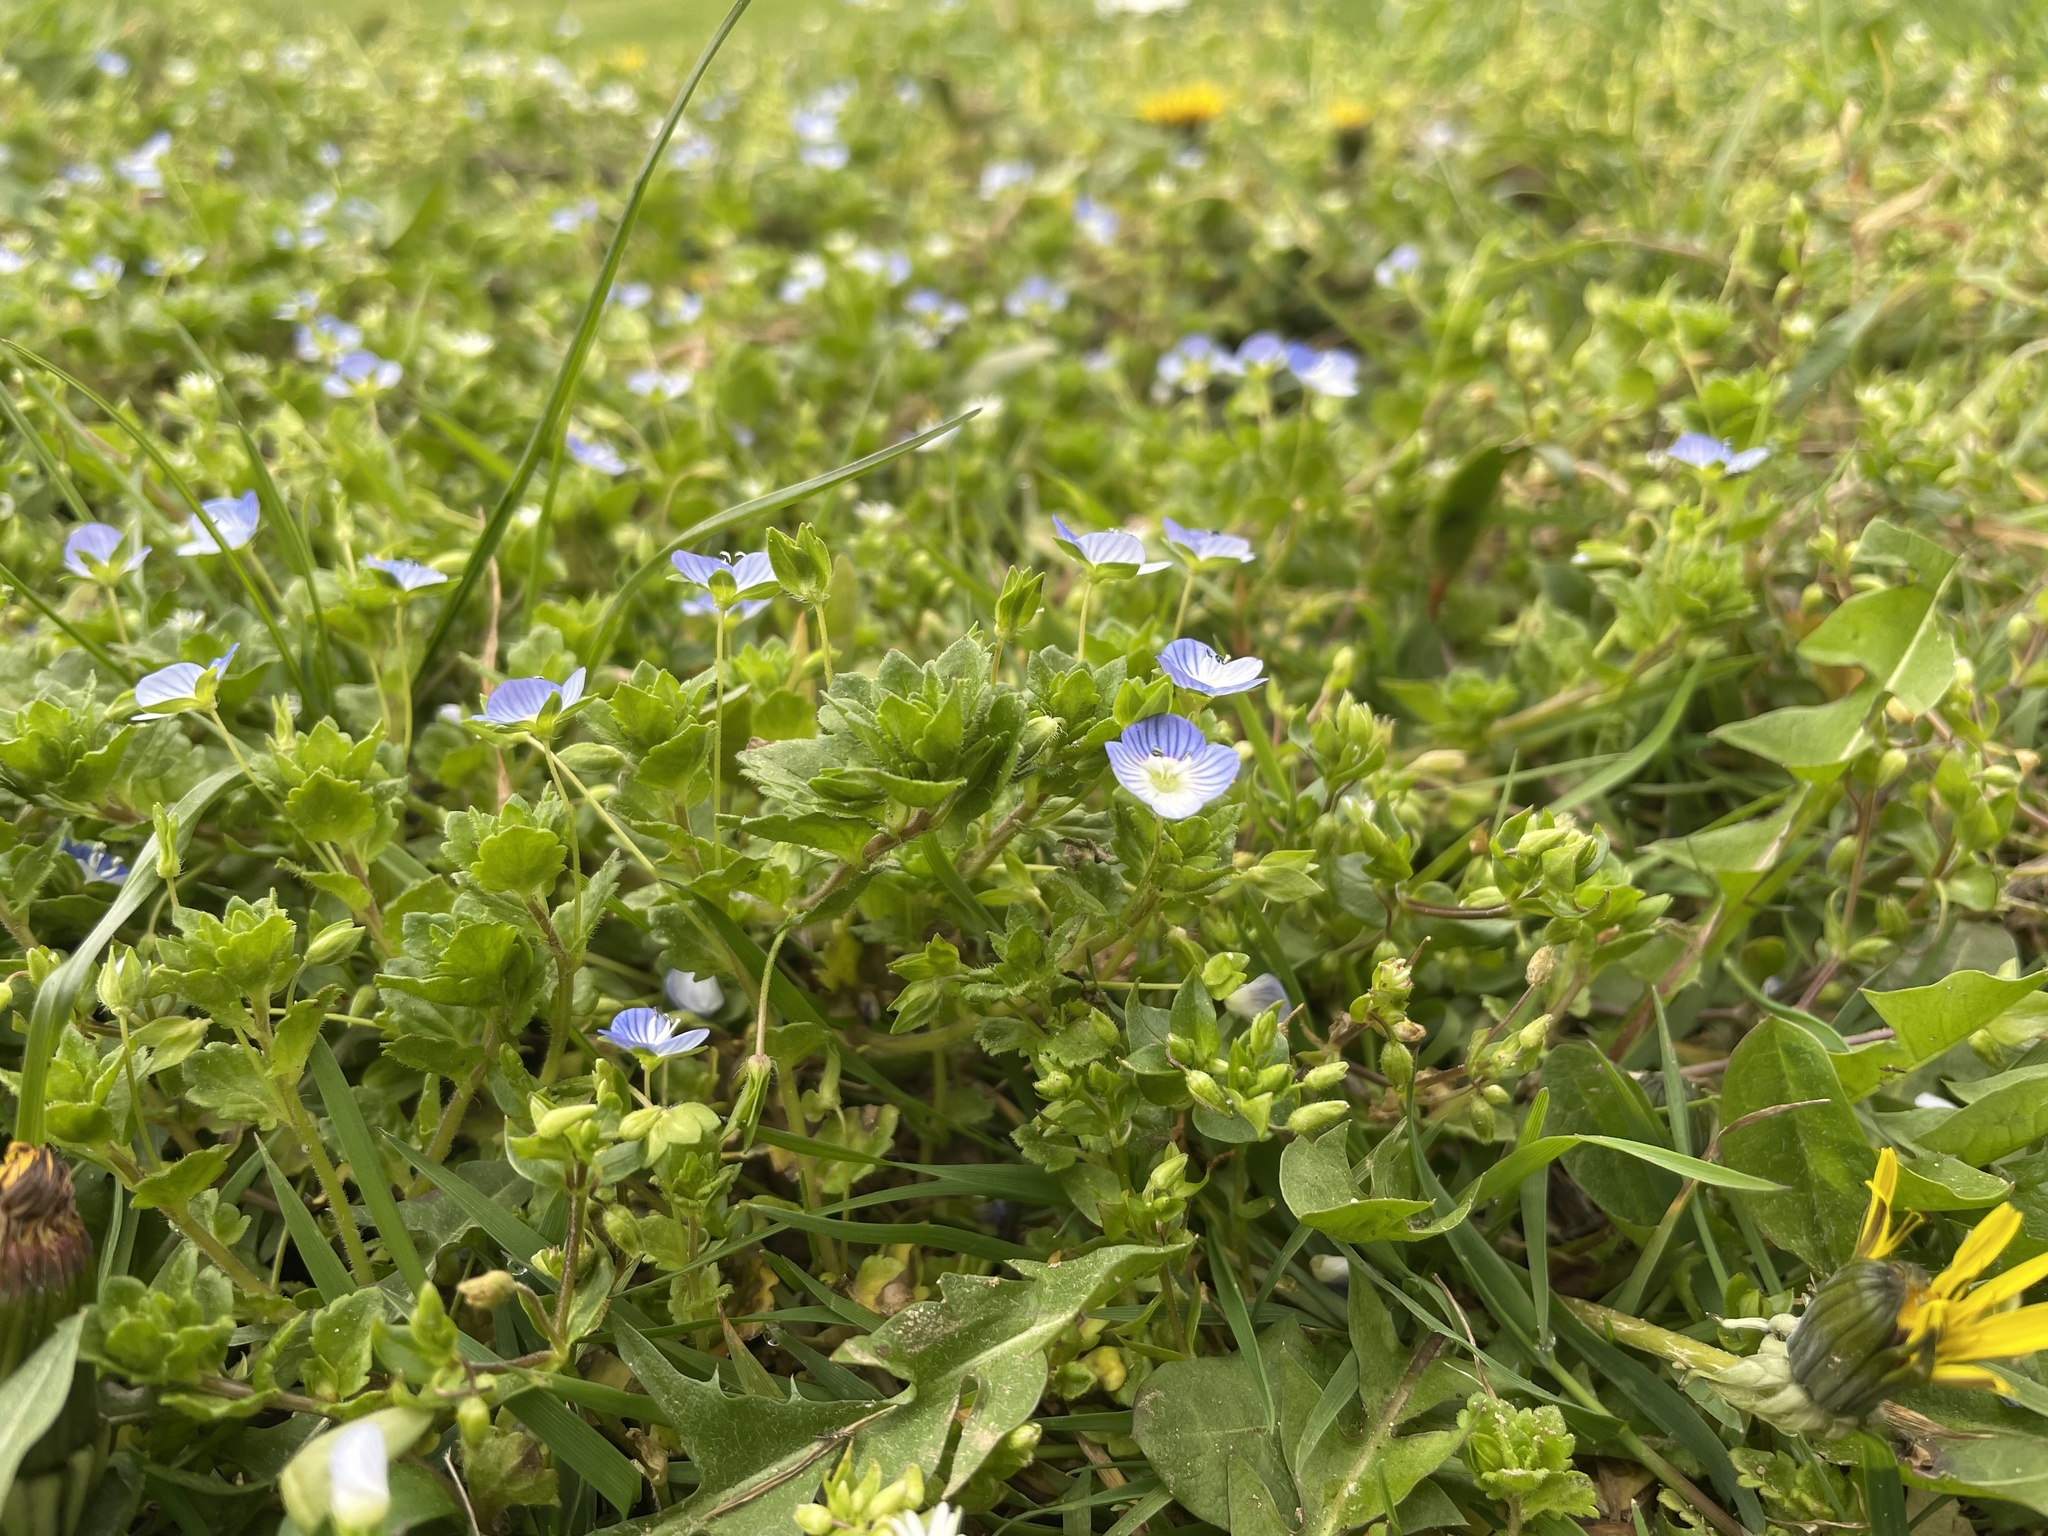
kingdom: Plantae
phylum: Tracheophyta
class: Magnoliopsida
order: Lamiales
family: Plantaginaceae
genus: Veronica
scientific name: Veronica persica
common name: Common field-speedwell
